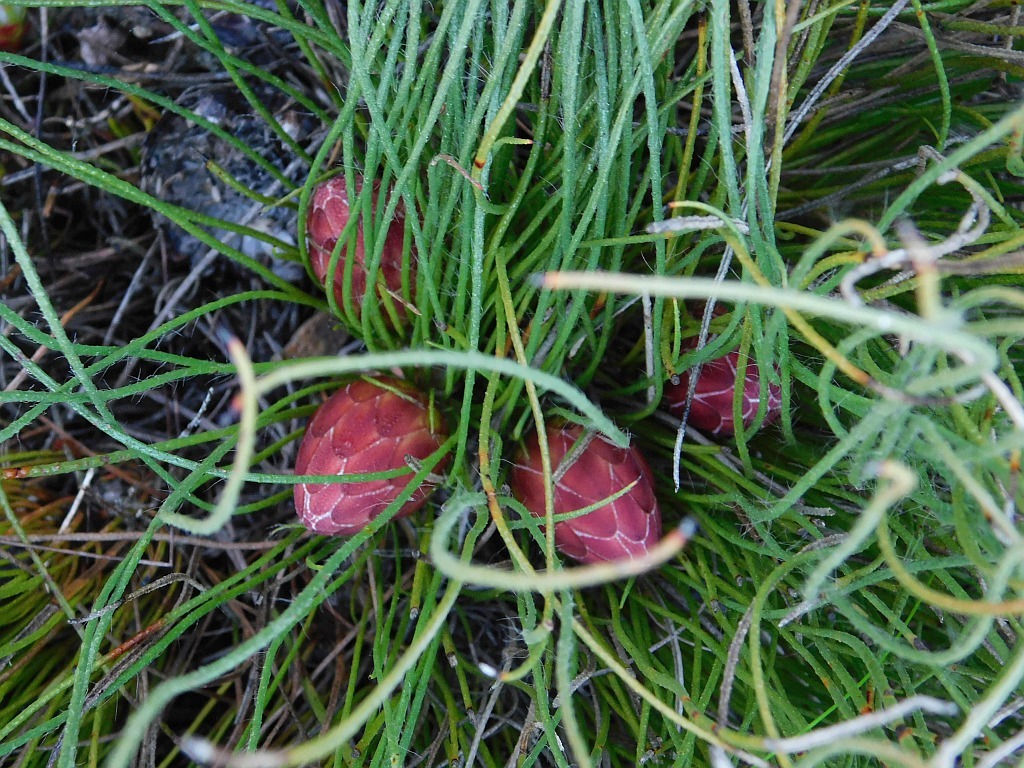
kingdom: Plantae
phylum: Tracheophyta
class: Magnoliopsida
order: Proteales
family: Proteaceae
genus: Protea
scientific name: Protea restionifolia
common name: Reed-leaf sugarbush
